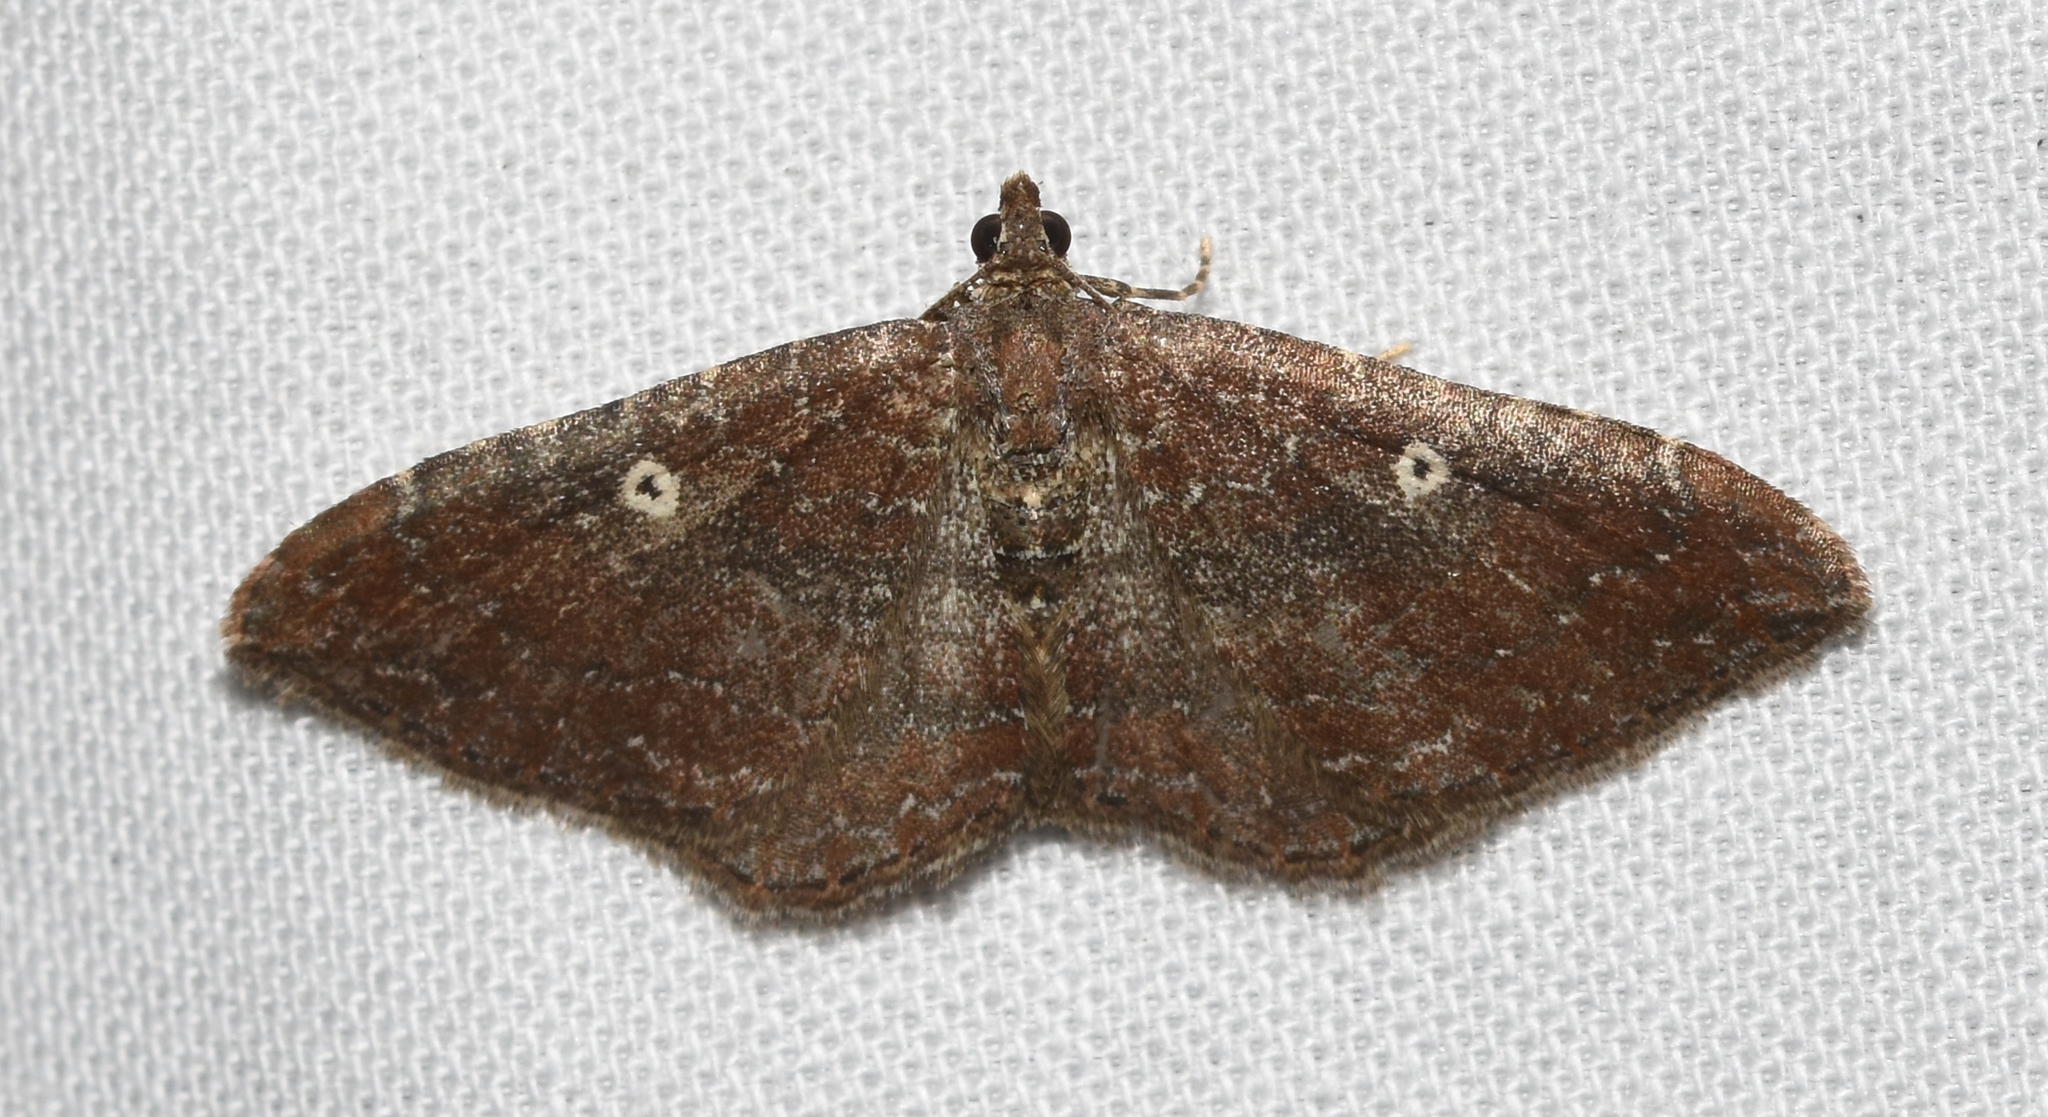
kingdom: Animalia
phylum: Arthropoda
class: Insecta
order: Lepidoptera
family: Geometridae
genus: Orthonama
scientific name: Orthonama obstipata
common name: The gem
